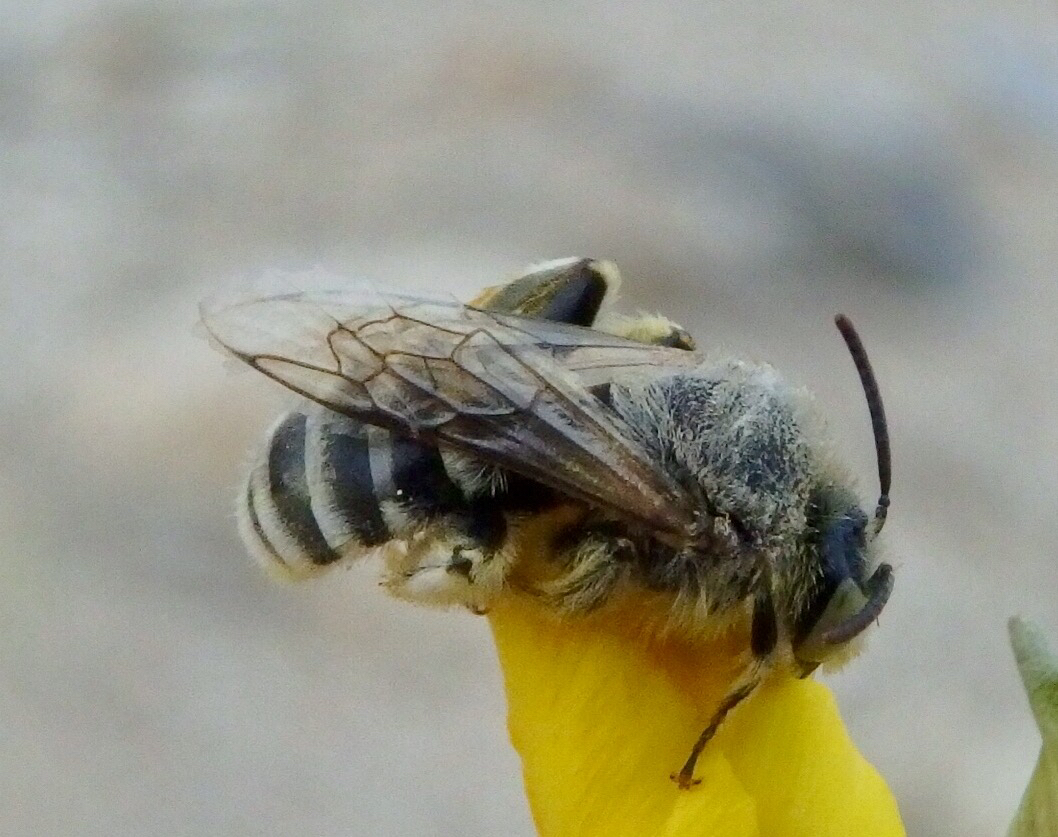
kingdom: Animalia
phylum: Arthropoda
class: Insecta
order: Hymenoptera
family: Melittidae
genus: Hesperapis
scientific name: Hesperapis
